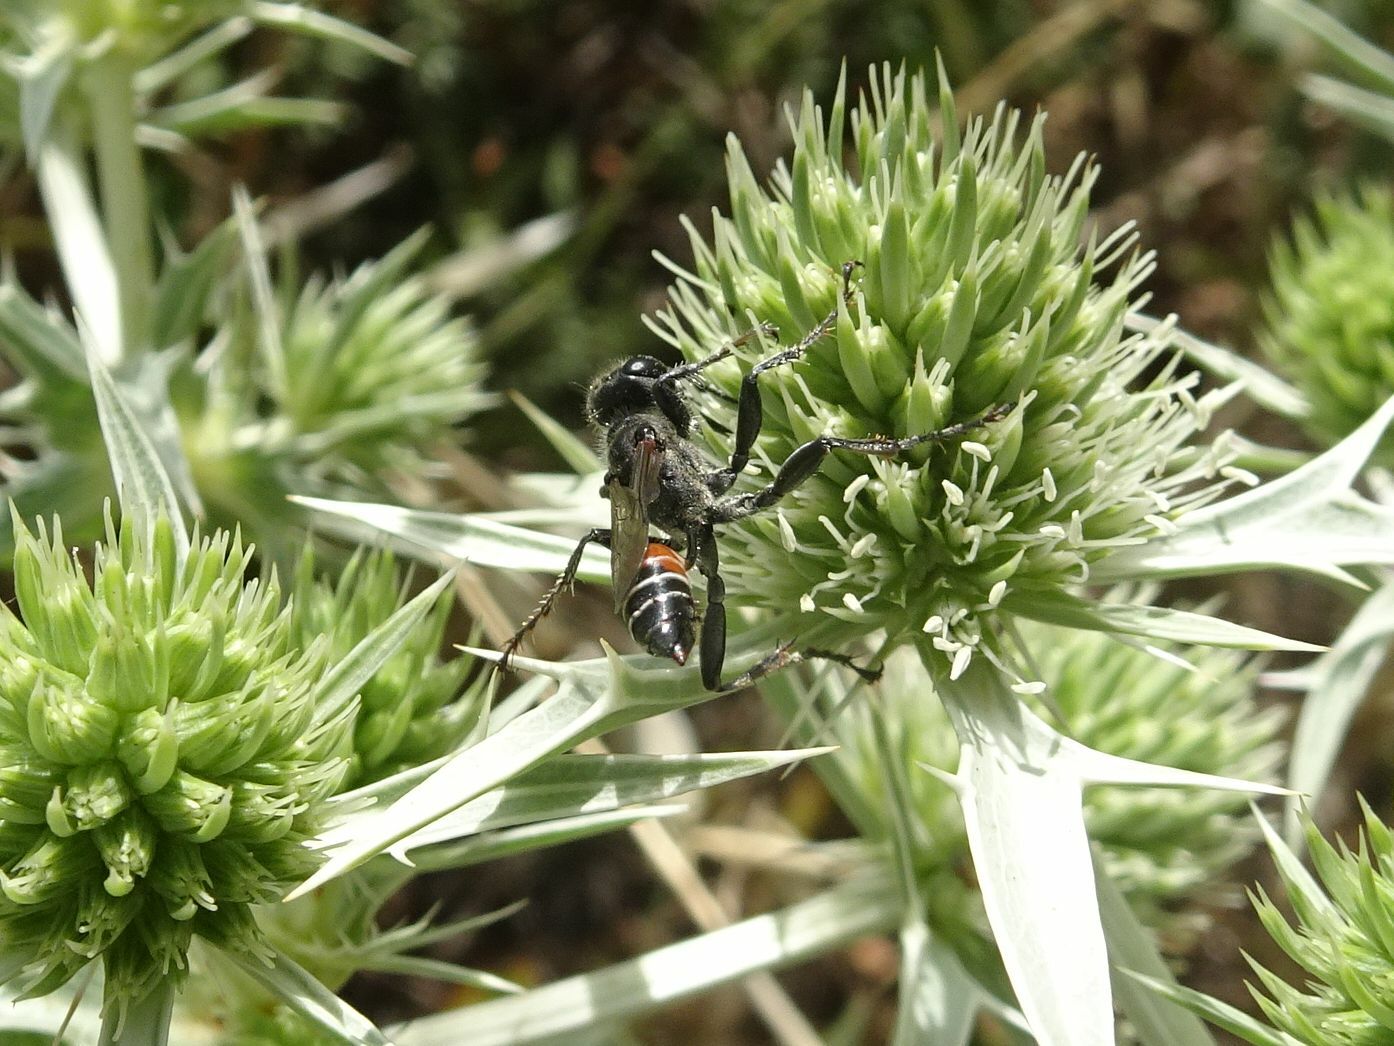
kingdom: Animalia
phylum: Arthropoda
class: Insecta
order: Hymenoptera
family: Sphecidae
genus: Prionyx
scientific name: Prionyx kirbii
